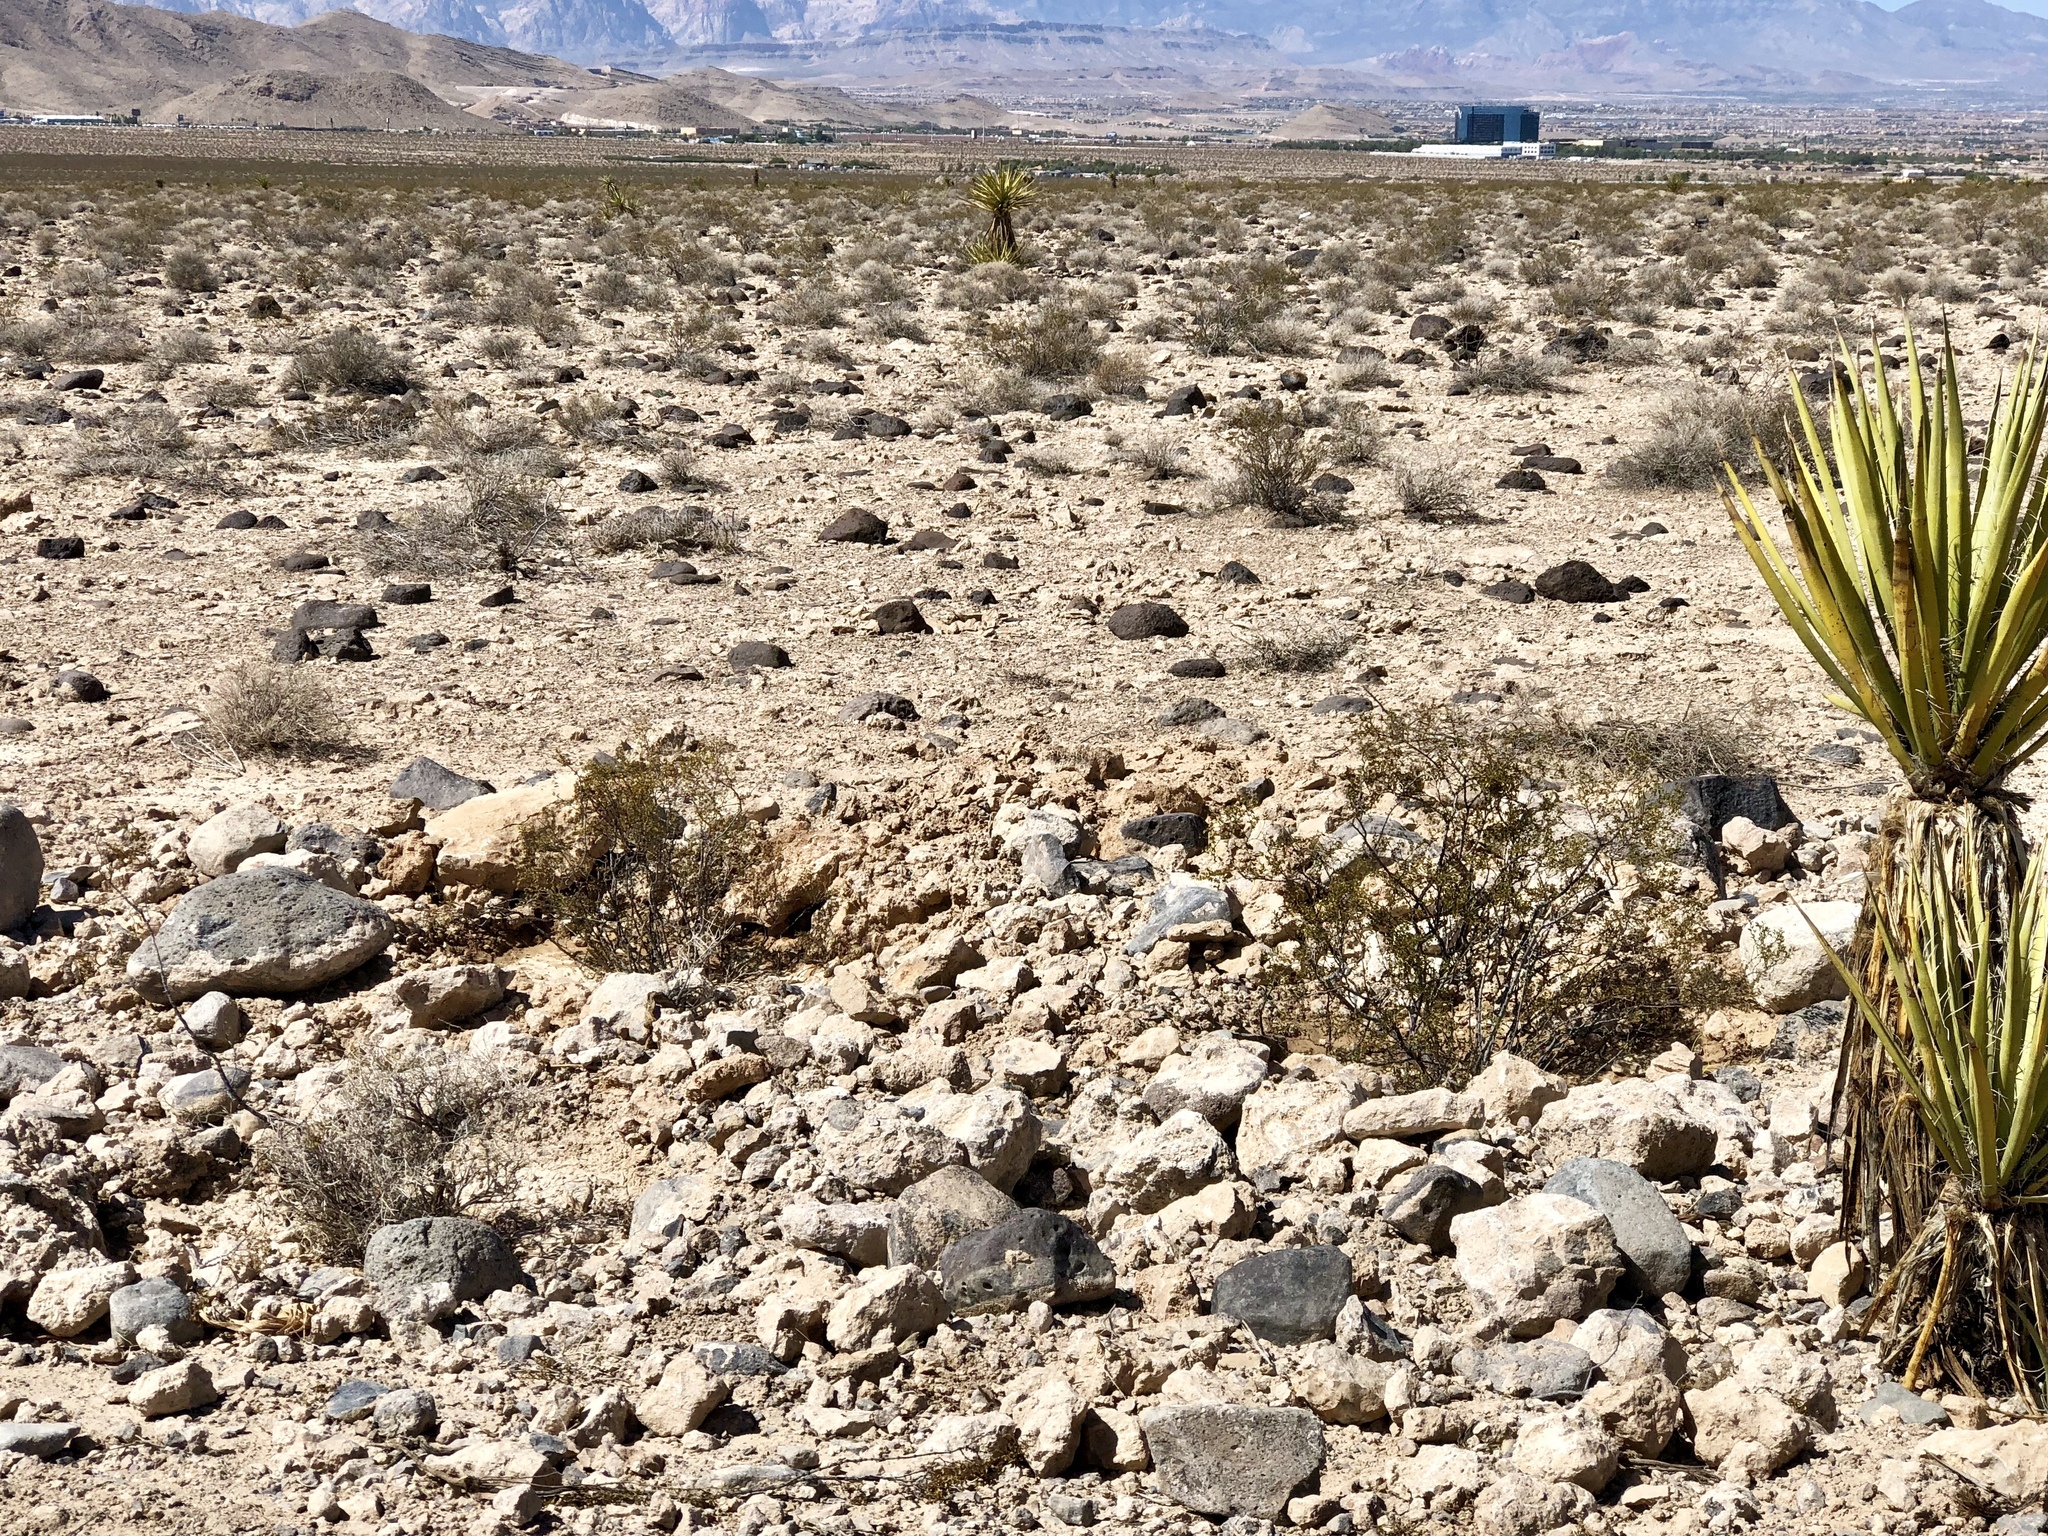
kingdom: Plantae
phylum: Tracheophyta
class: Magnoliopsida
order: Zygophyllales
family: Zygophyllaceae
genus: Larrea
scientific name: Larrea tridentata
